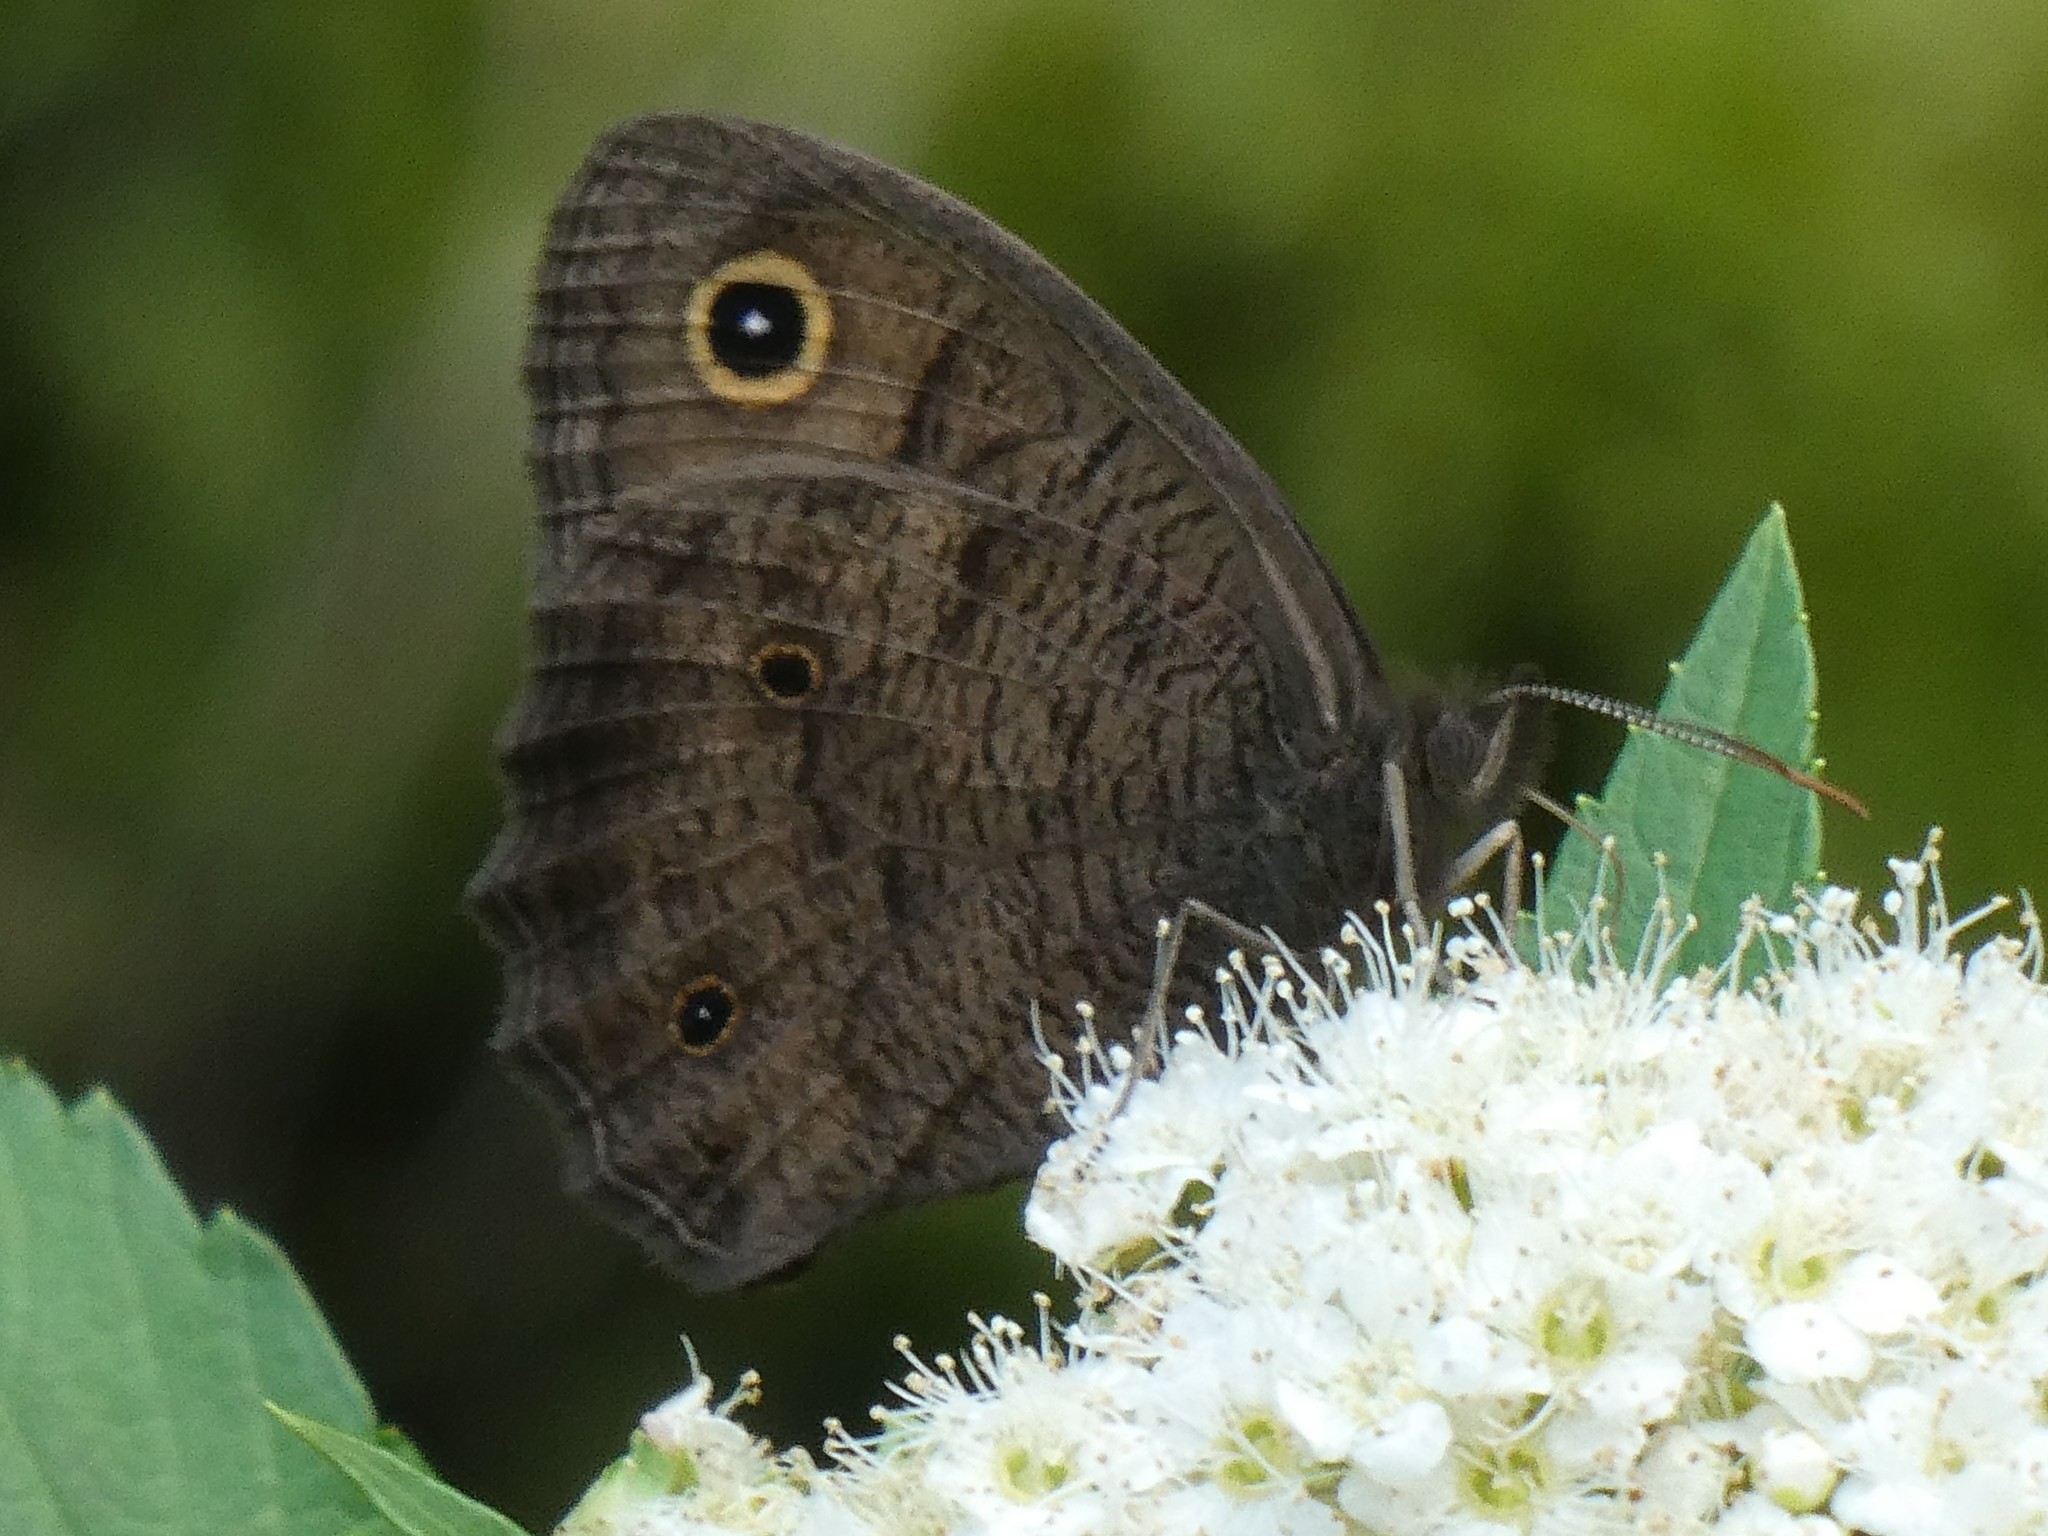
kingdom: Animalia
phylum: Arthropoda
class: Insecta
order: Lepidoptera
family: Nymphalidae
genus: Cercyonis
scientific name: Cercyonis pegala
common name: Common wood-nymph
